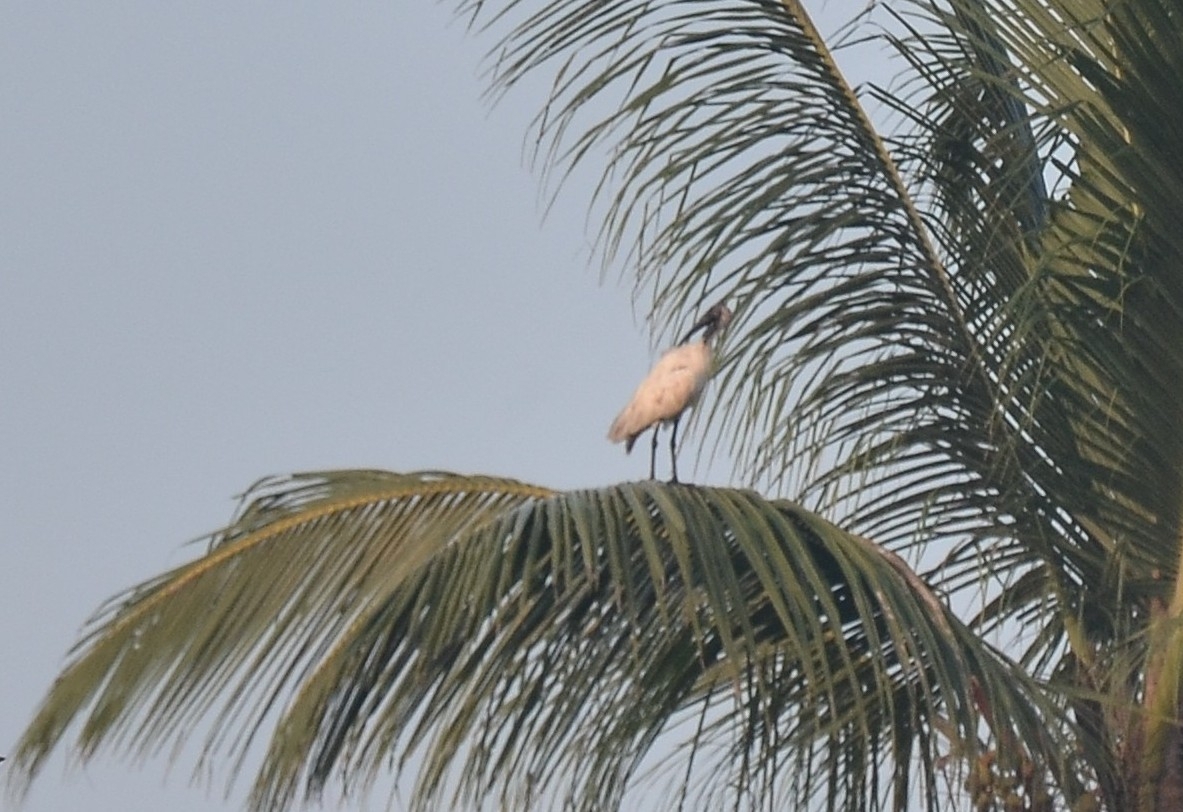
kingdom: Animalia
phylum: Chordata
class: Aves
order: Pelecaniformes
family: Threskiornithidae
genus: Threskiornis
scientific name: Threskiornis melanocephalus
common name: Black-headed ibis
